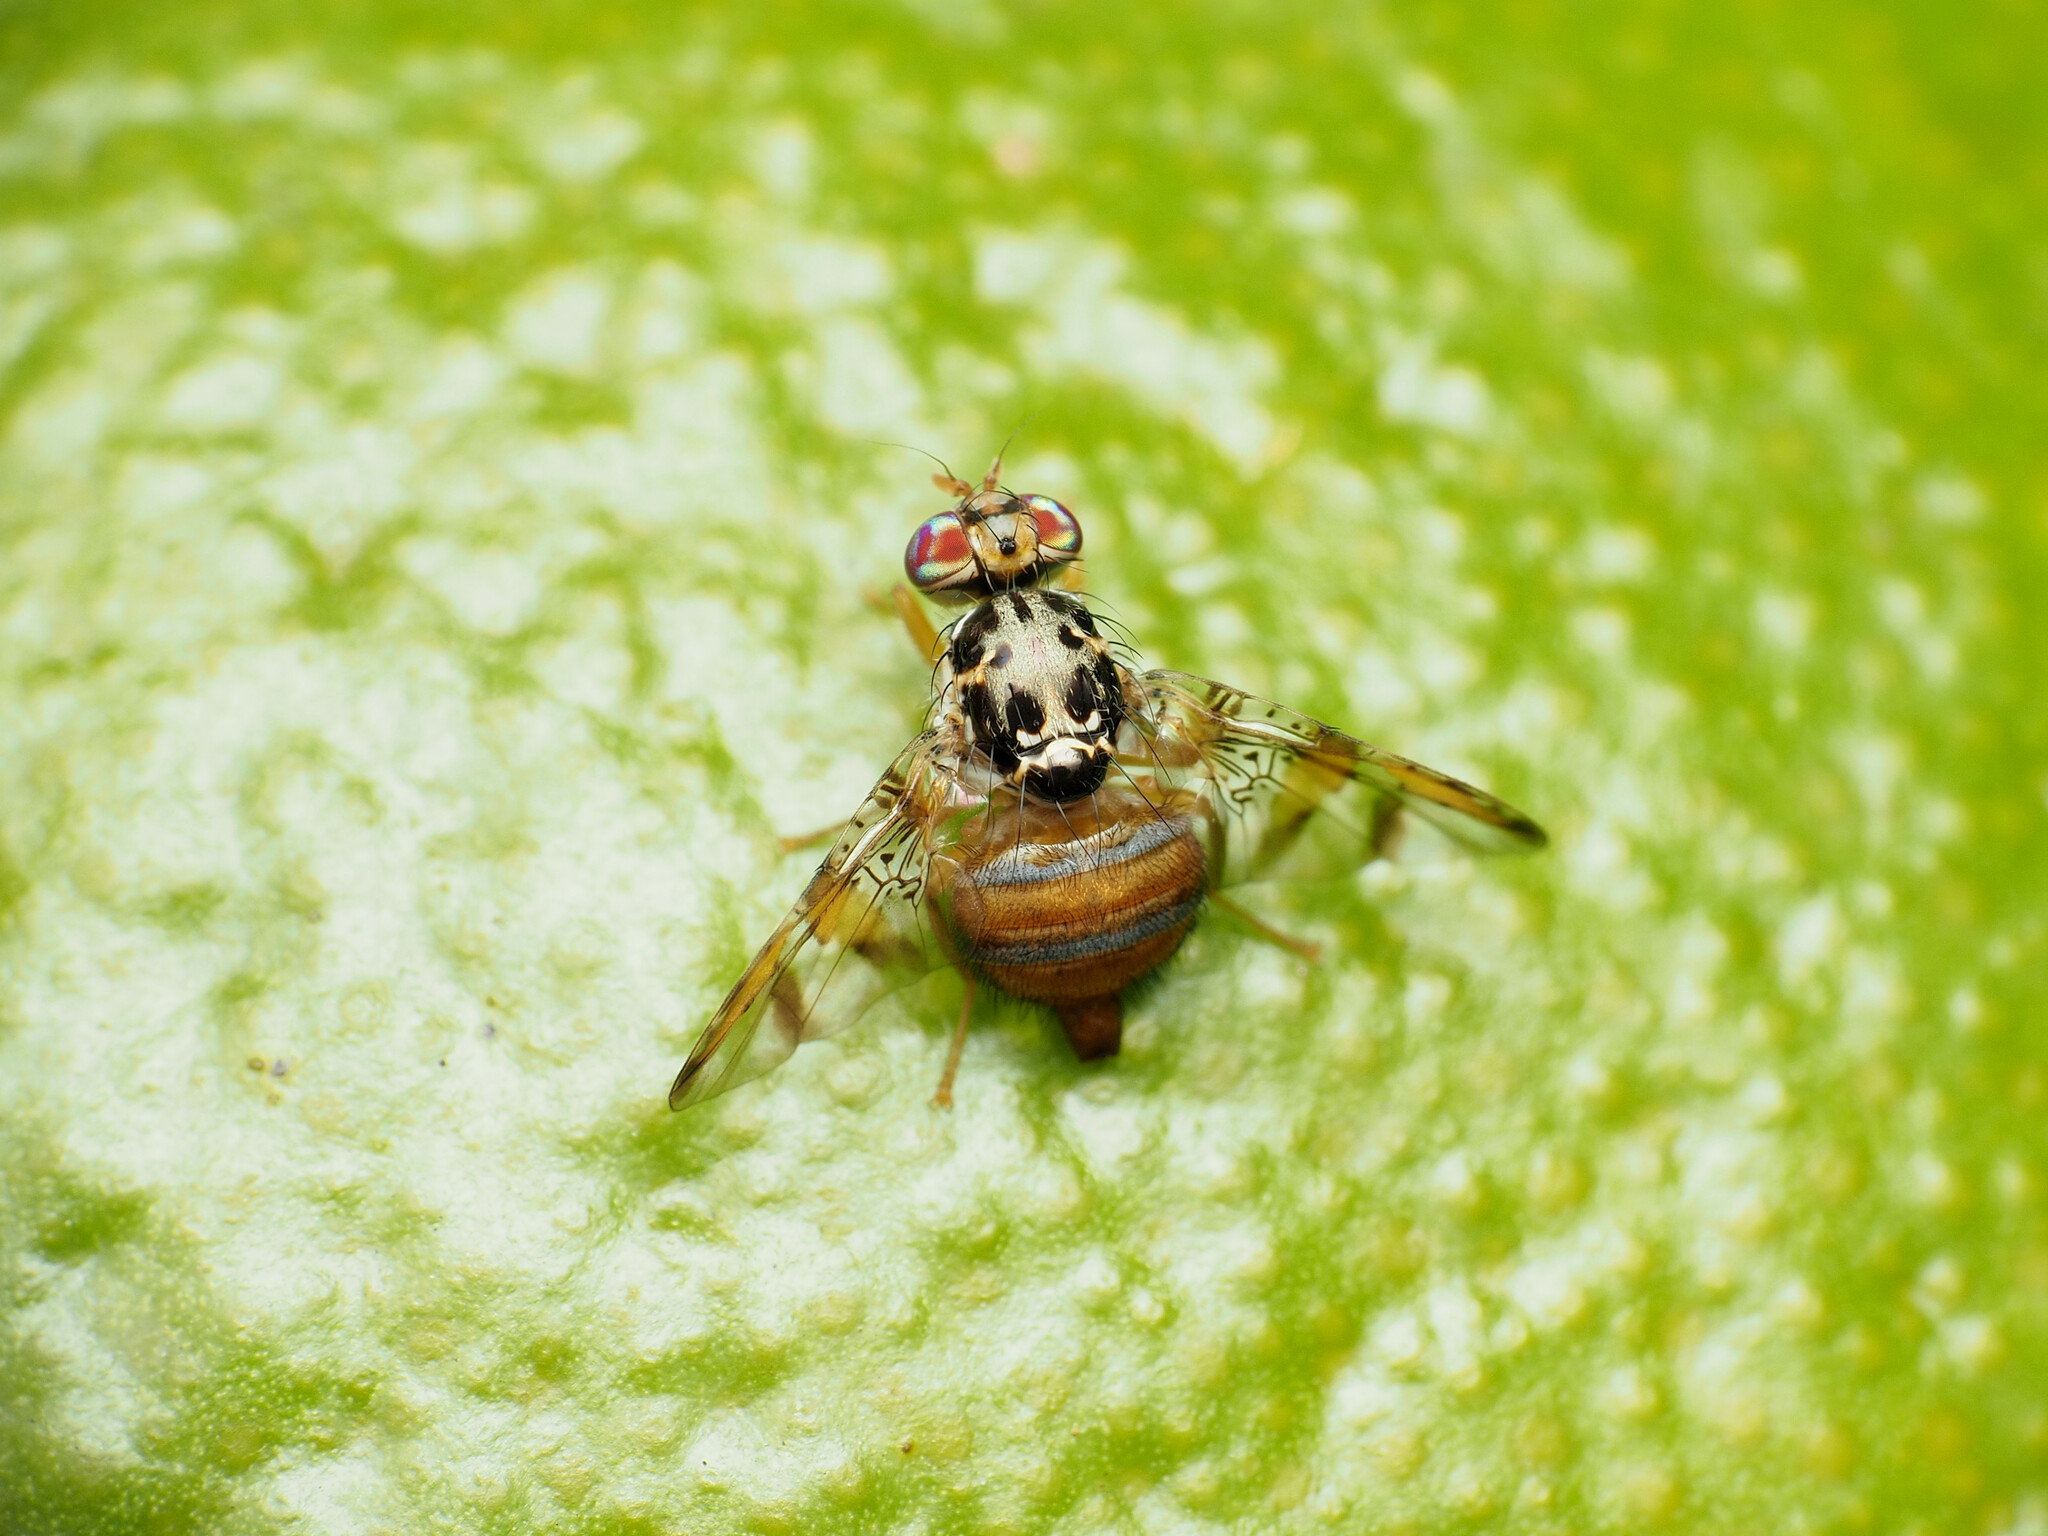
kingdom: Animalia
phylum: Arthropoda
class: Insecta
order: Diptera
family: Tephritidae
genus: Ceratitis
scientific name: Ceratitis capitata
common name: Mediterranean fruit fly
